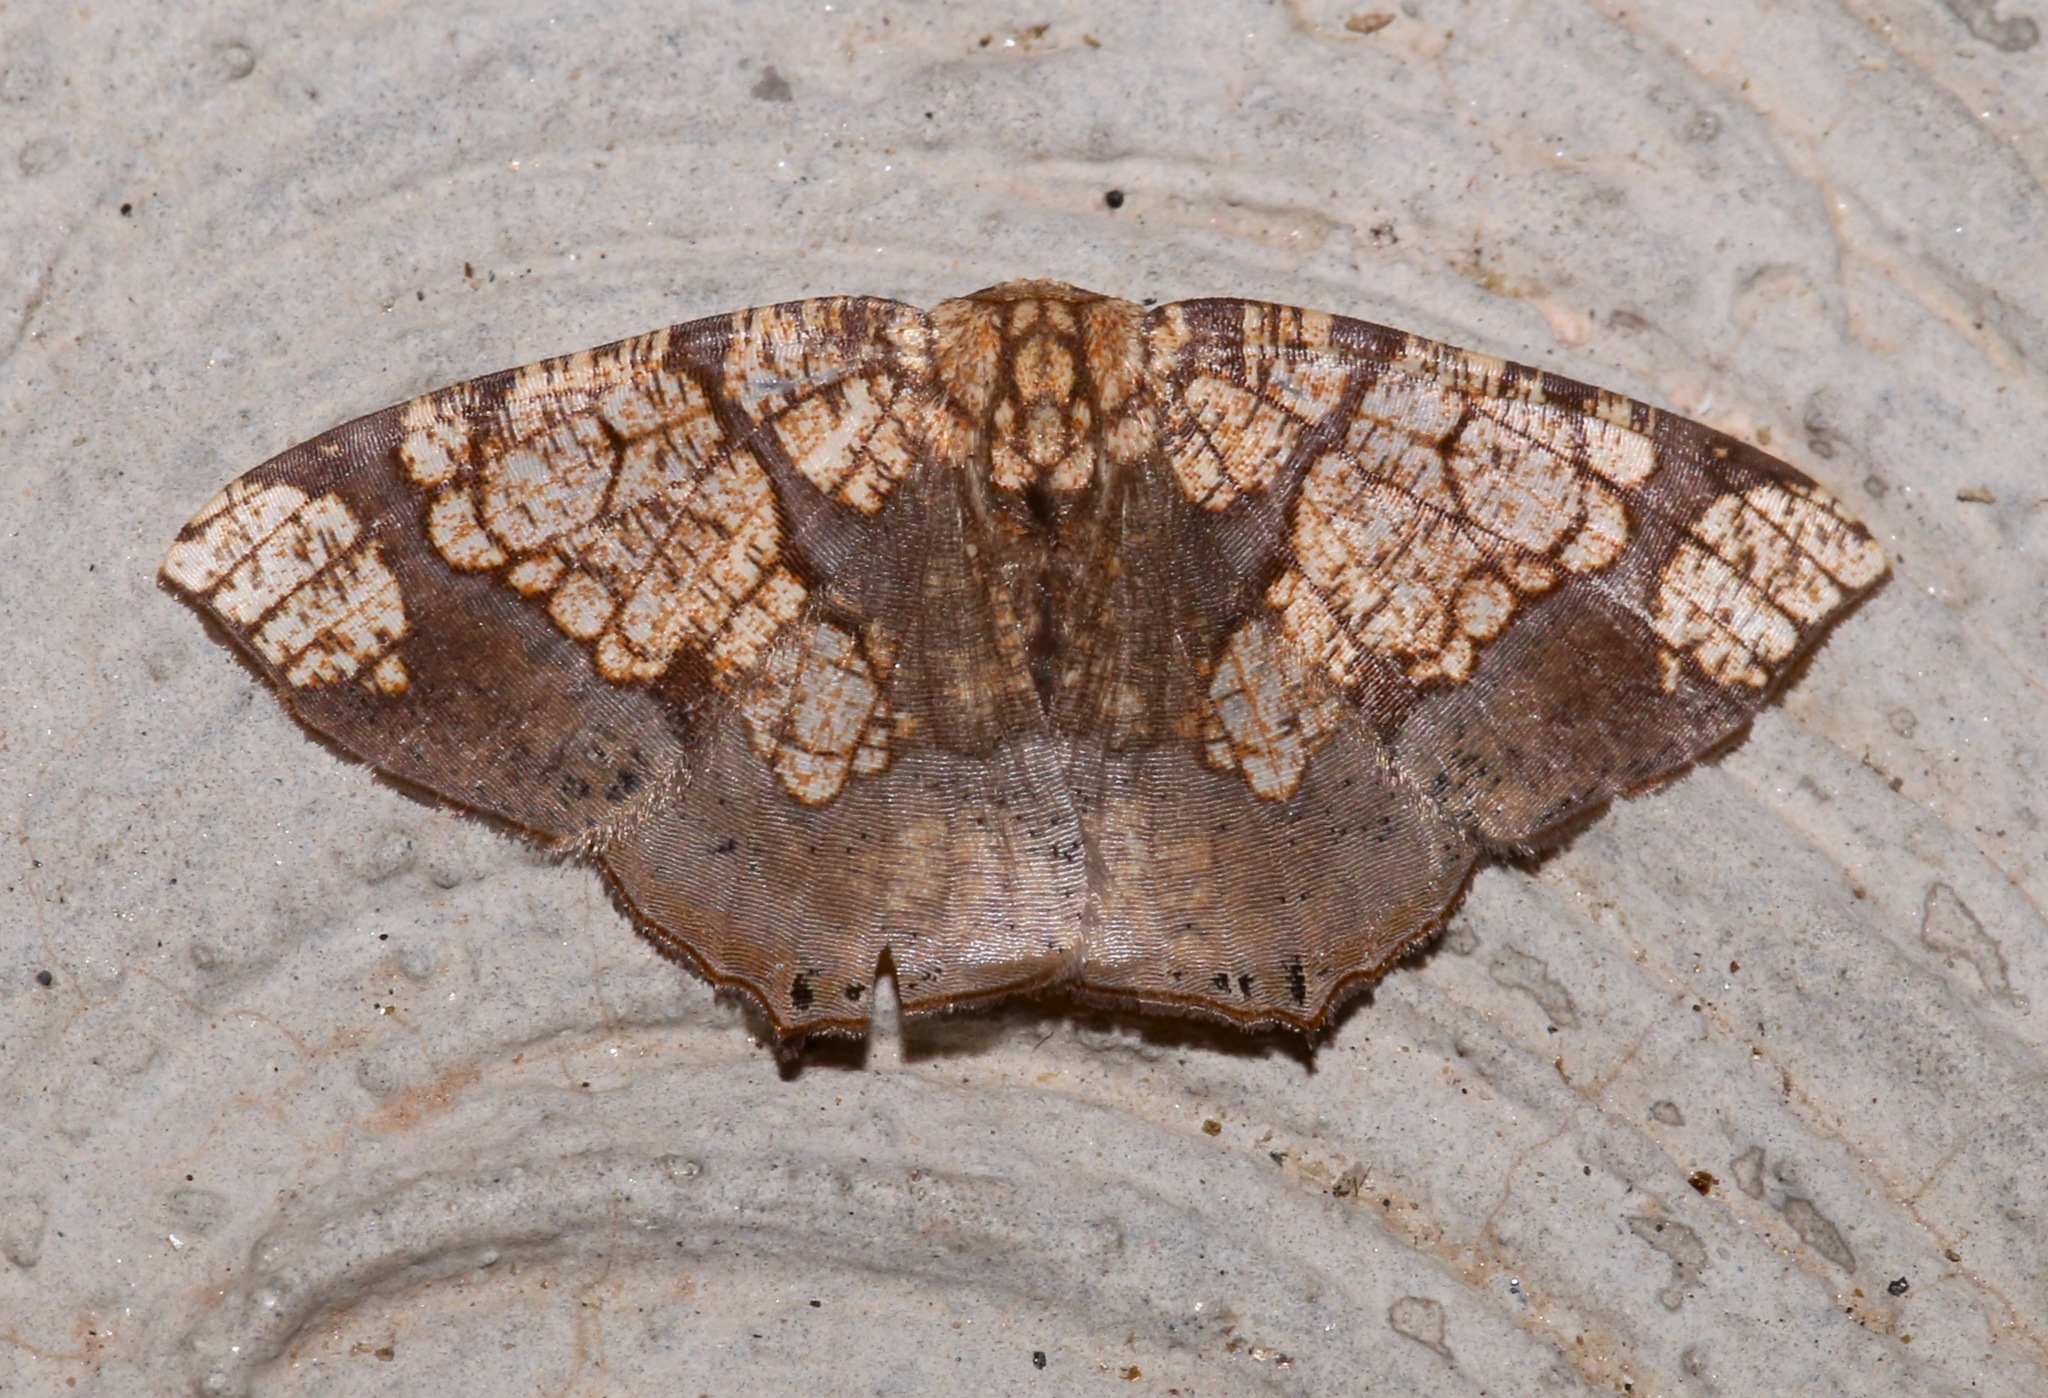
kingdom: Animalia
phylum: Arthropoda
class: Insecta
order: Lepidoptera
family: Geometridae
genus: Nematocampa
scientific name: Nematocampa completa
